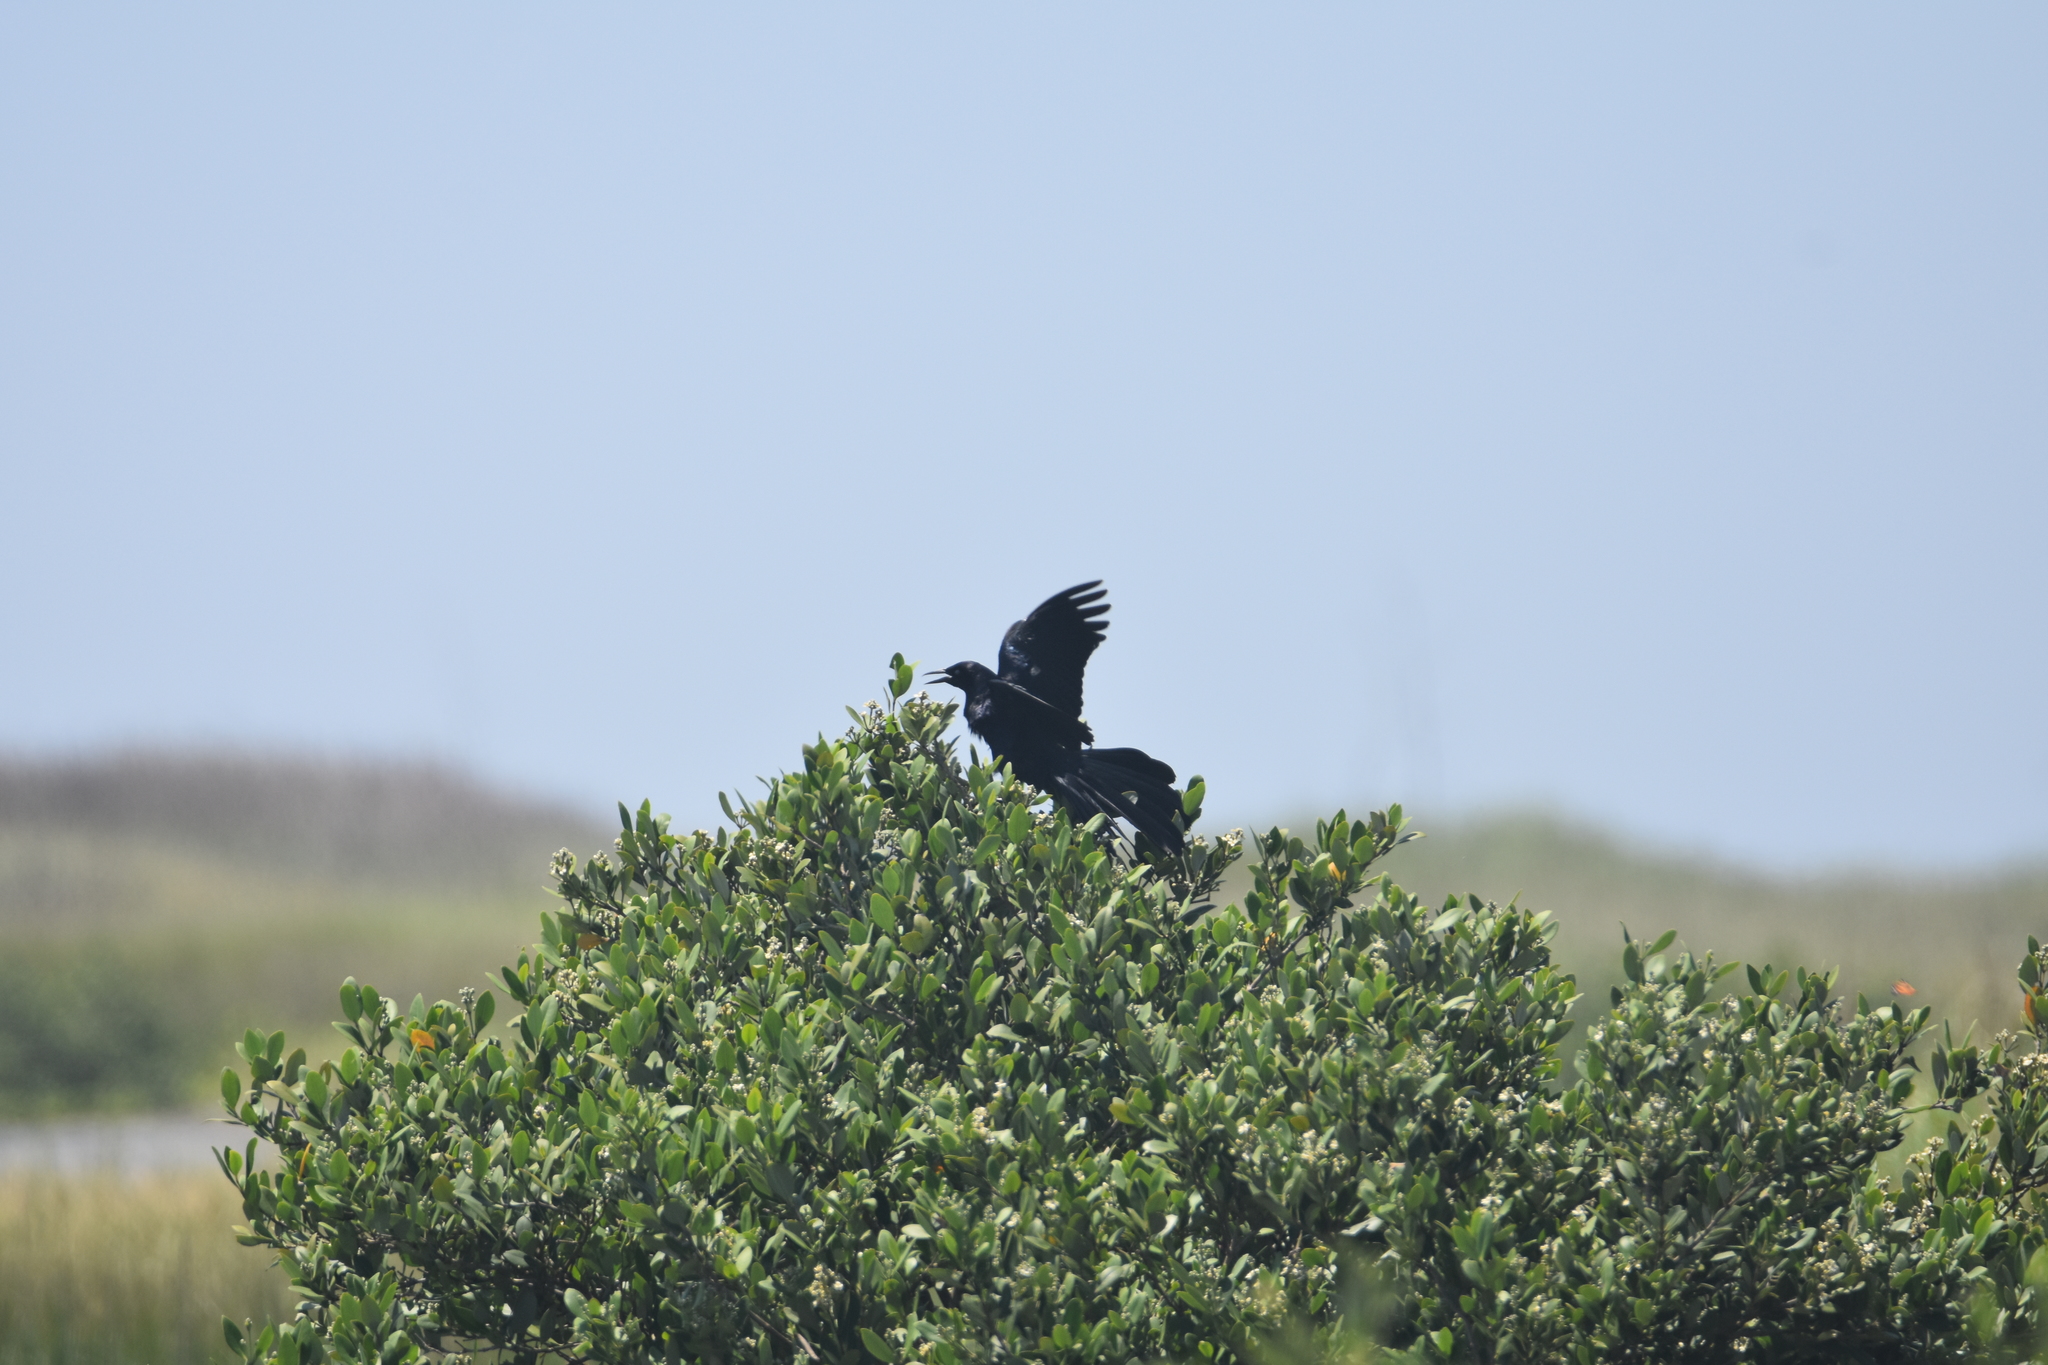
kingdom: Animalia
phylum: Chordata
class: Aves
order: Passeriformes
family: Icteridae
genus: Quiscalus
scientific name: Quiscalus mexicanus
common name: Great-tailed grackle
